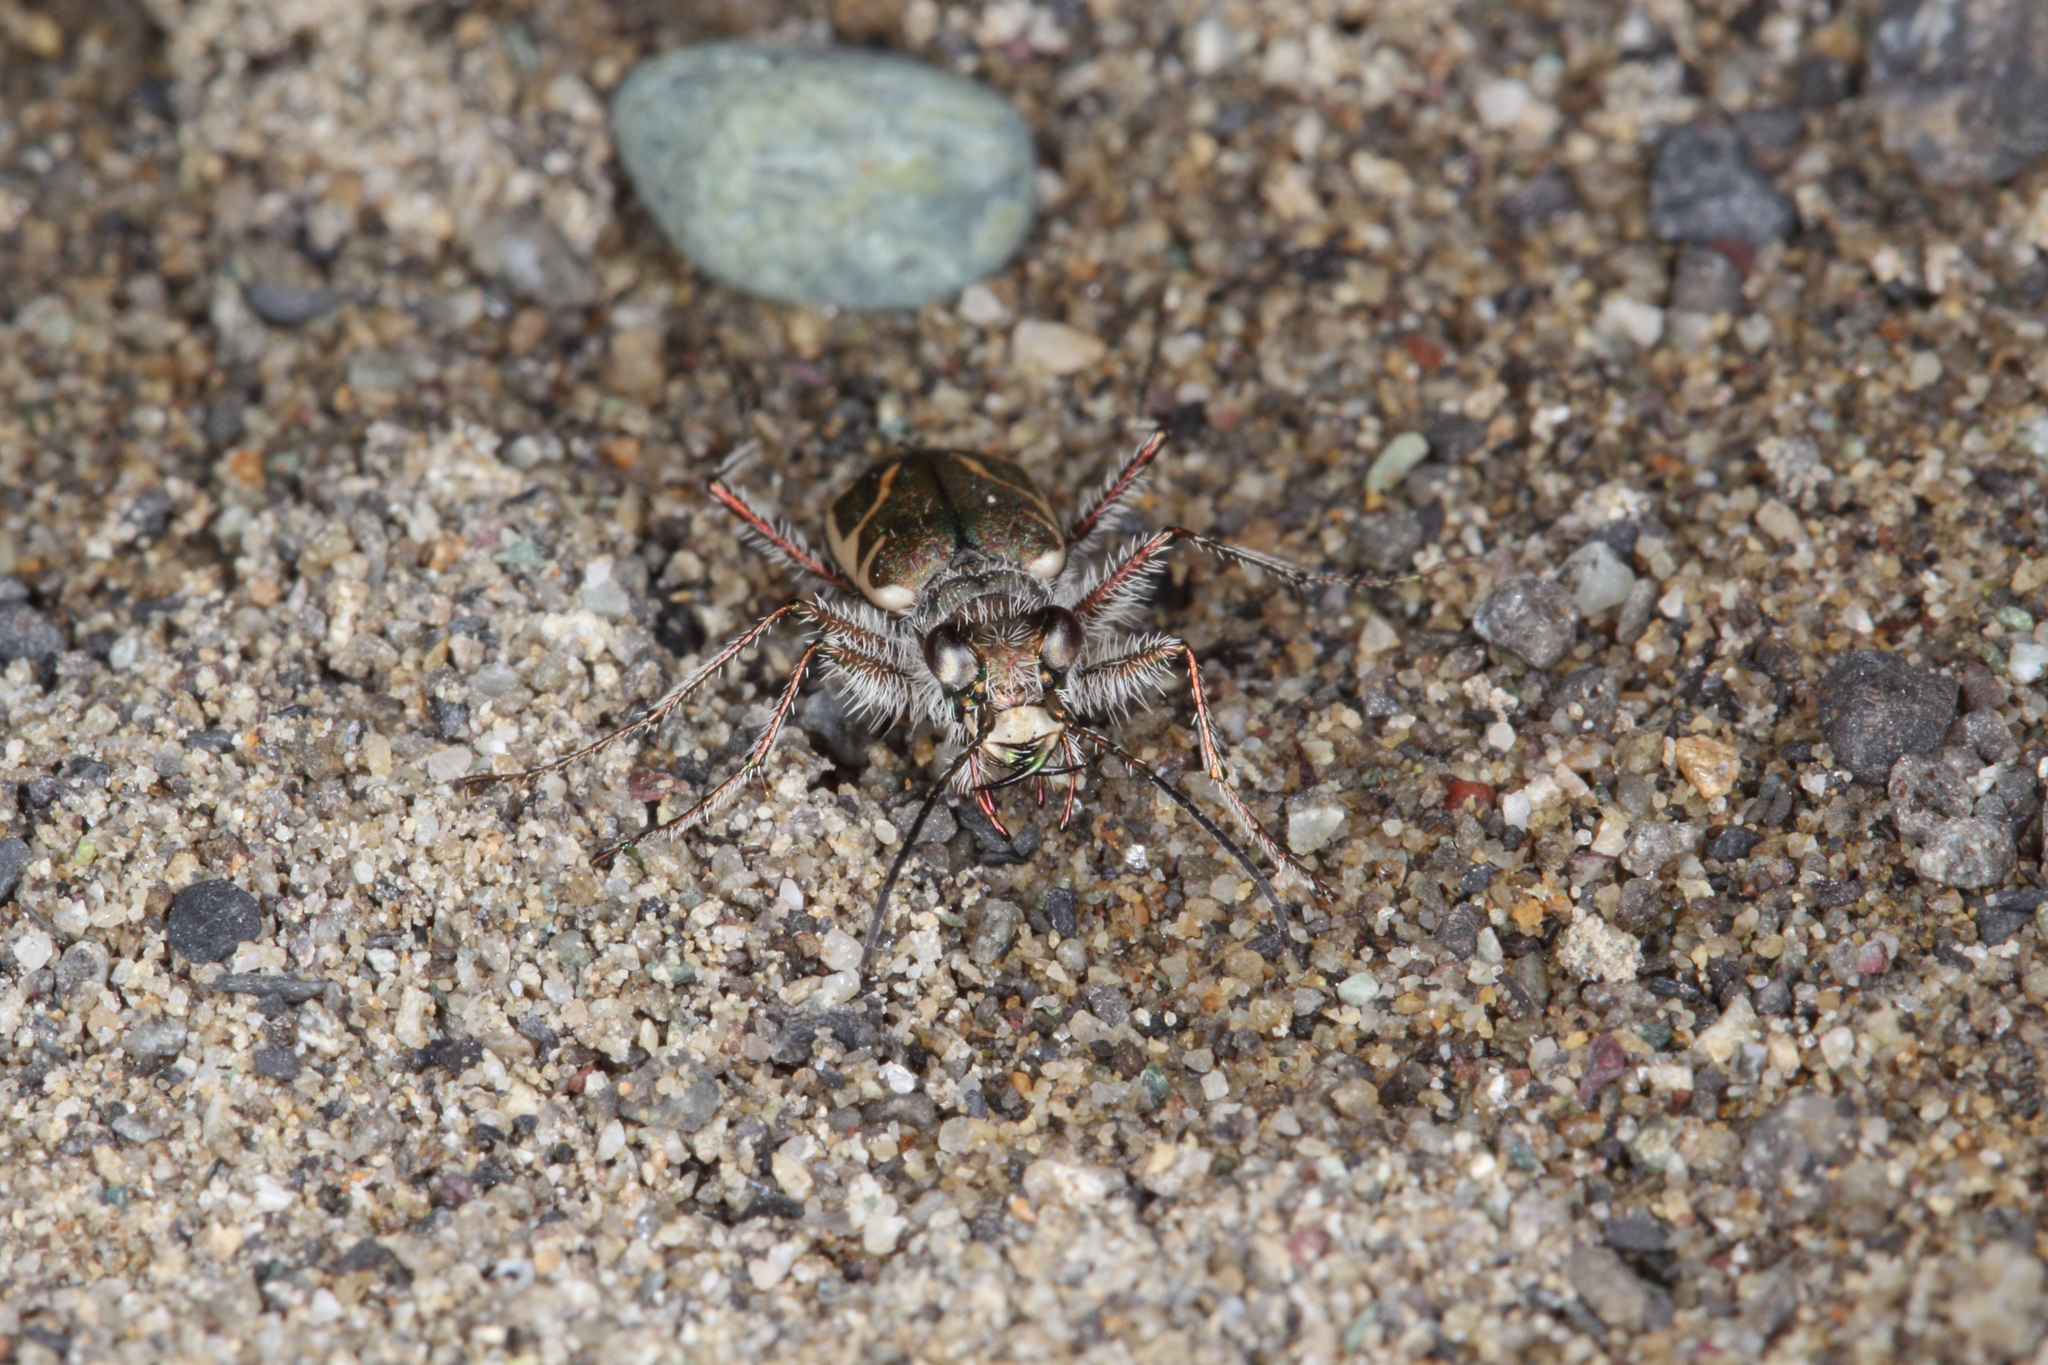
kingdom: Animalia
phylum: Arthropoda
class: Insecta
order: Coleoptera
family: Carabidae
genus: Zecicindela
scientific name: Zecicindela feredayi
